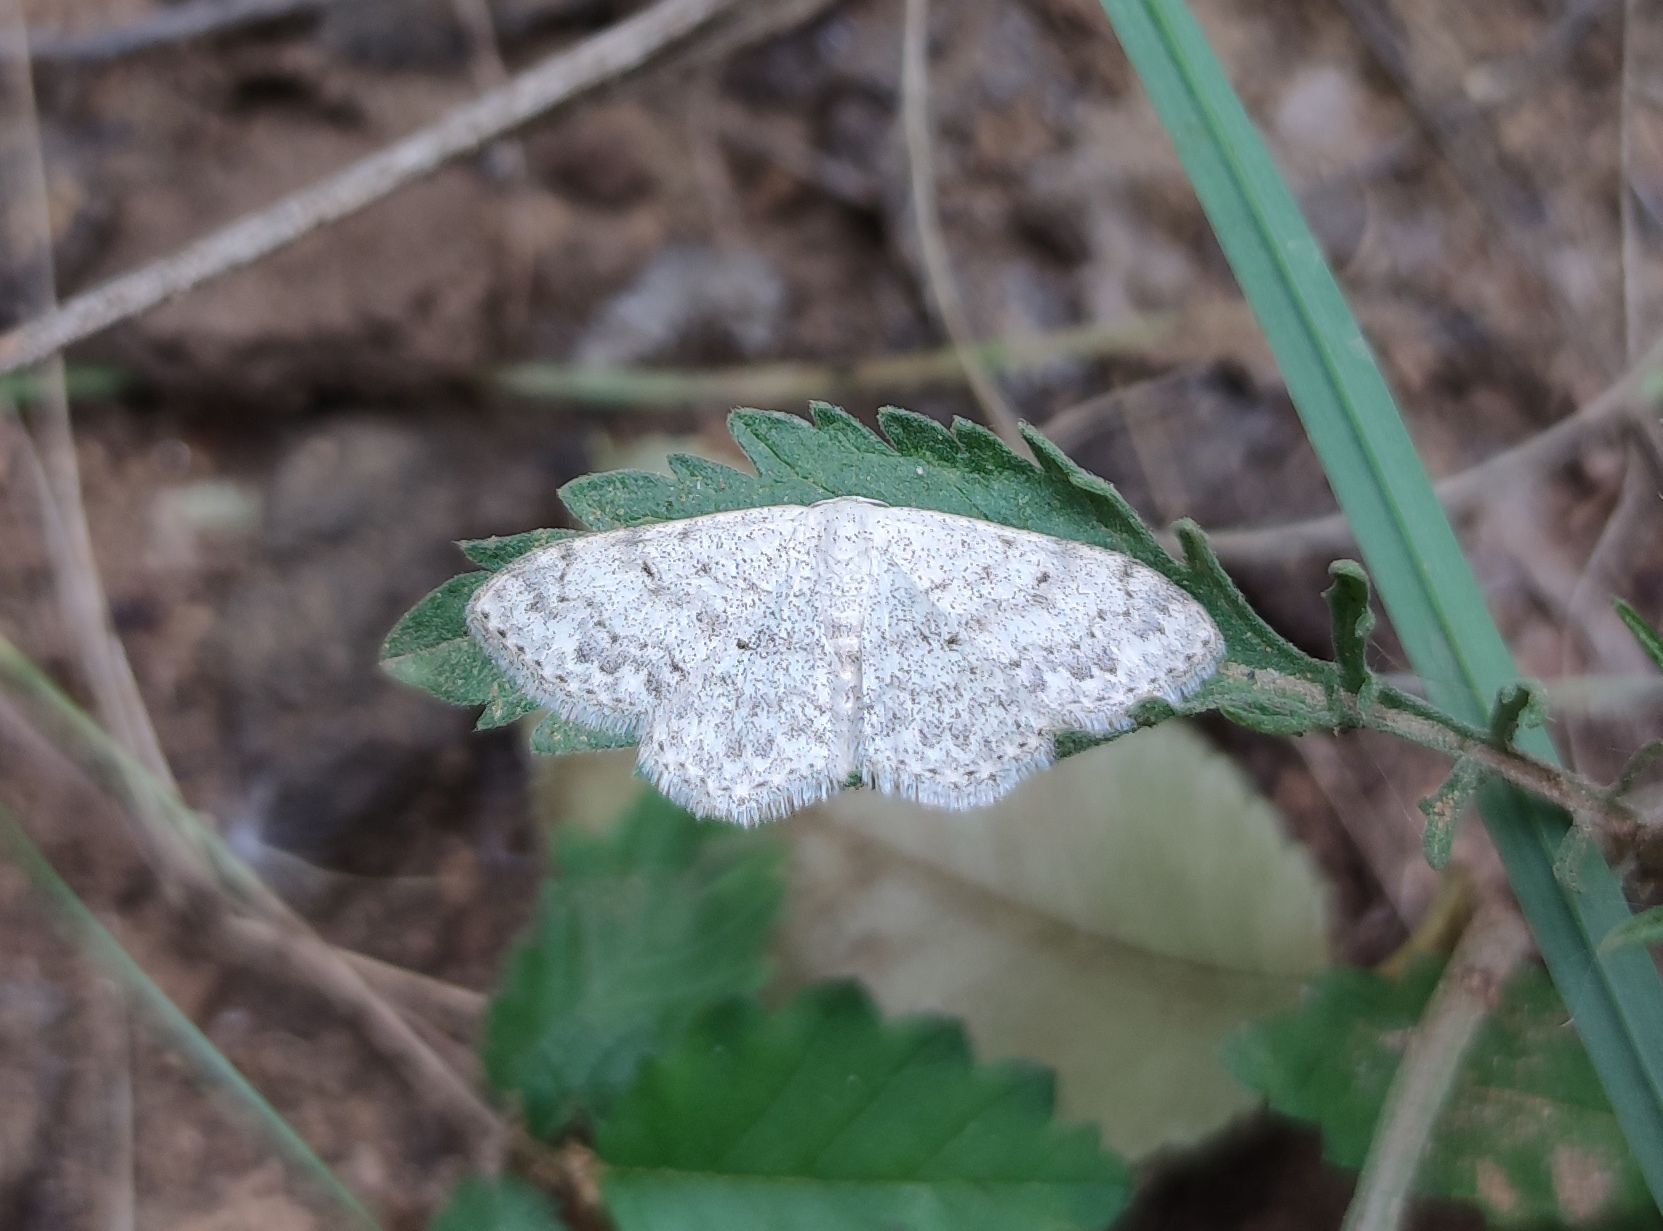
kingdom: Animalia
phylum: Arthropoda
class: Insecta
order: Lepidoptera
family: Geometridae
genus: Scopula
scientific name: Scopula marginepunctata
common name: Mullein wave
